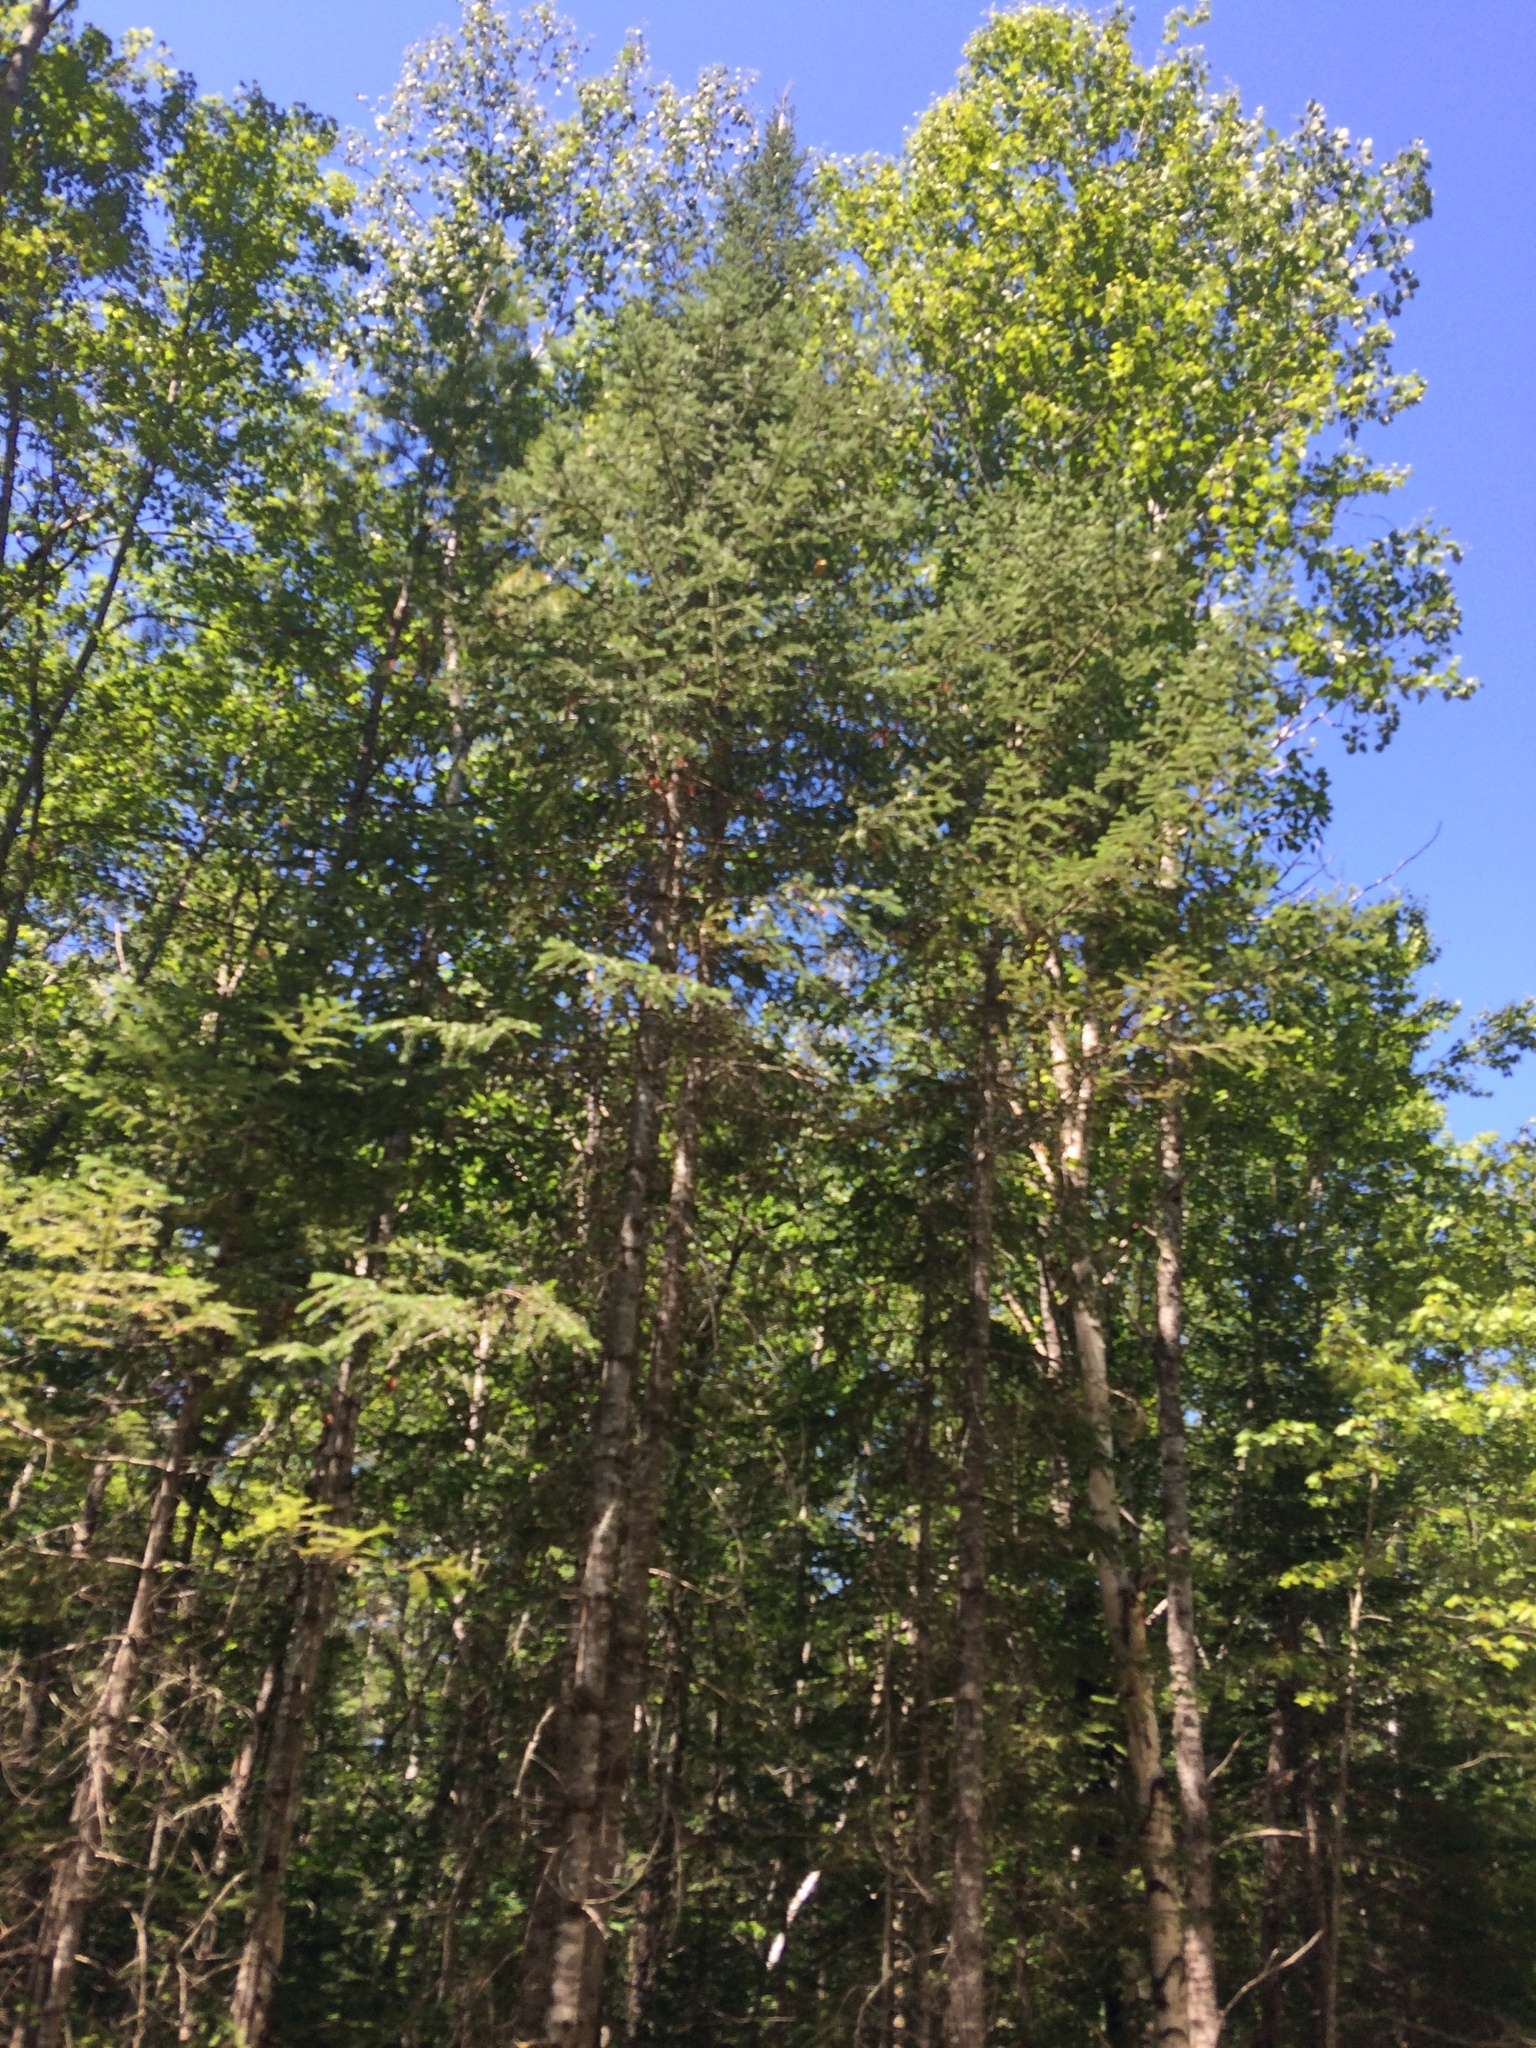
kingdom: Plantae
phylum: Tracheophyta
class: Pinopsida
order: Pinales
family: Pinaceae
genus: Abies
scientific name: Abies balsamea
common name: Balsam fir
